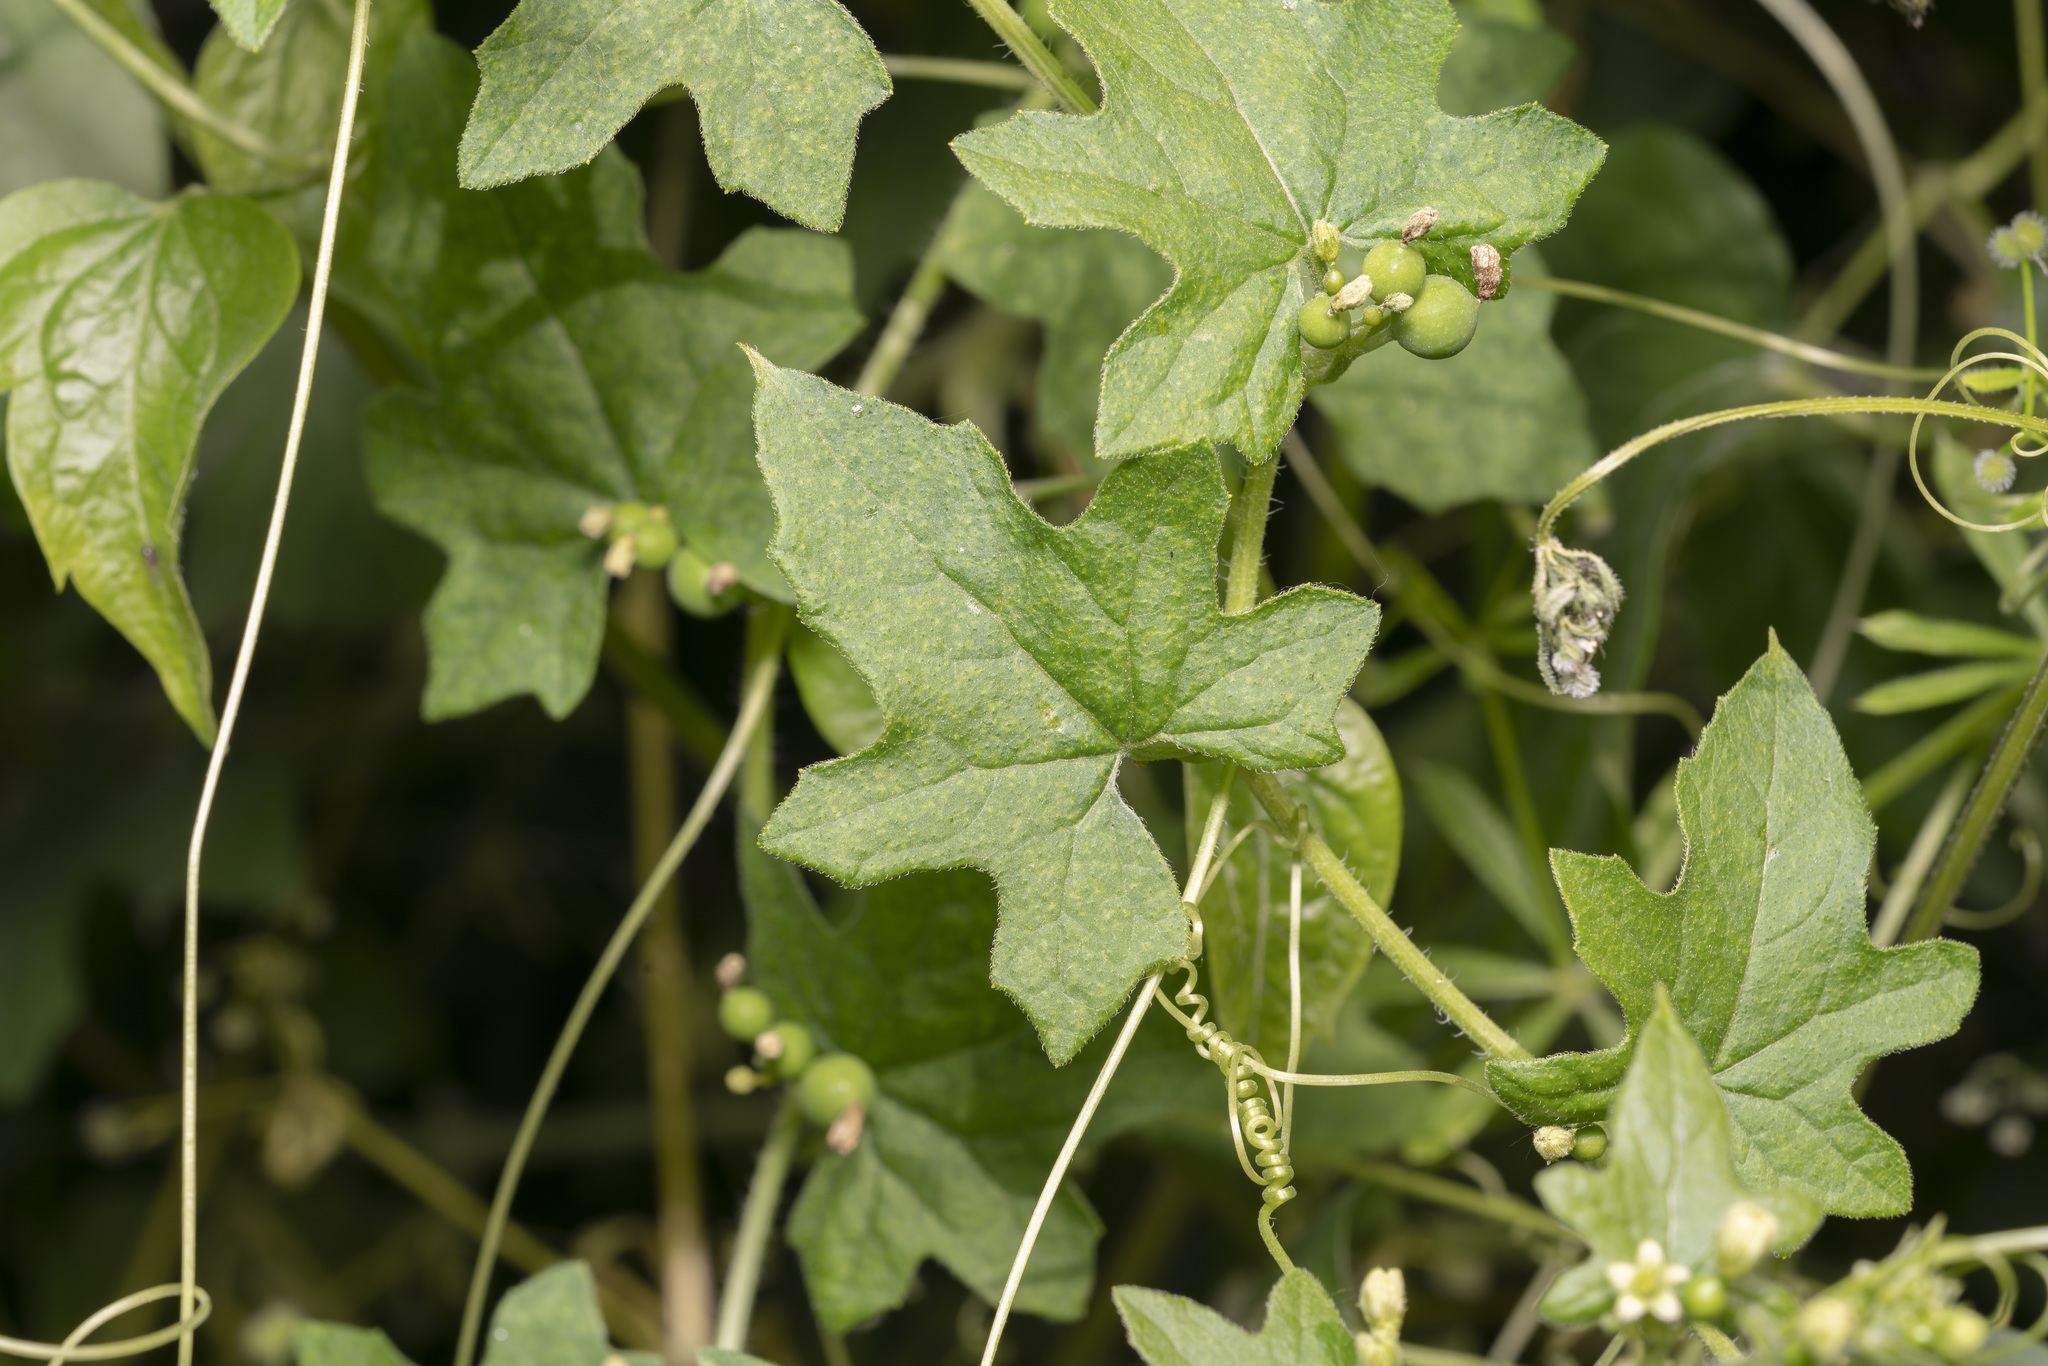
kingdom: Plantae
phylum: Tracheophyta
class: Magnoliopsida
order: Cucurbitales
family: Cucurbitaceae
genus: Bryonia
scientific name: Bryonia cretica
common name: Cretan bryony
